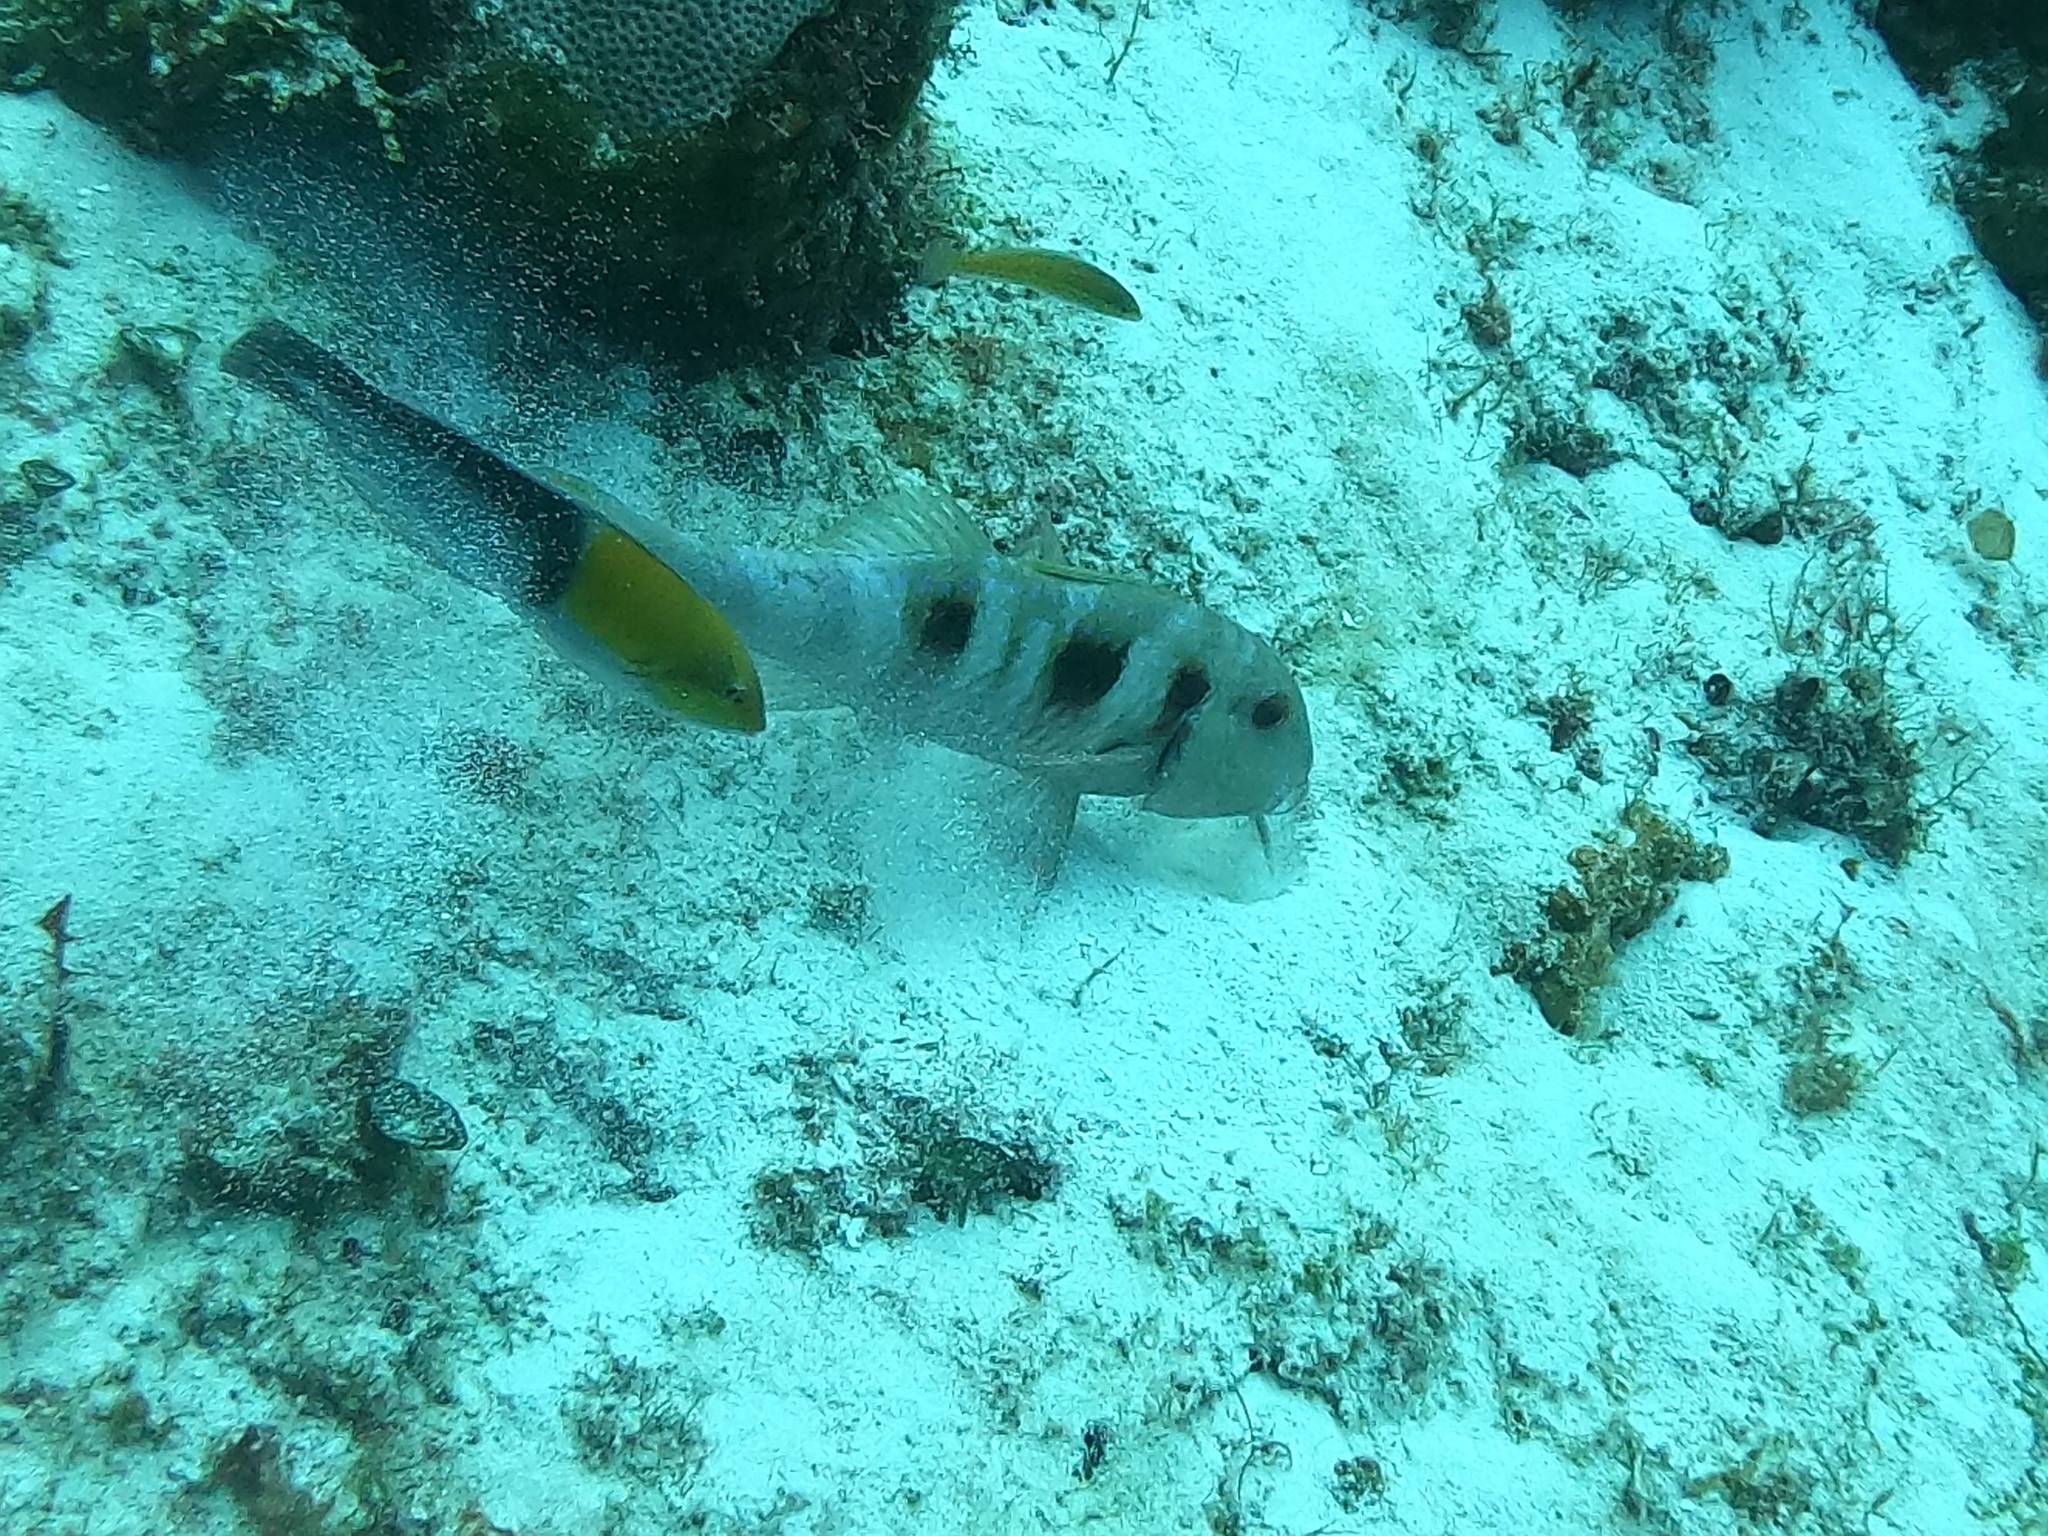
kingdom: Animalia
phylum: Chordata
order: Perciformes
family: Mullidae
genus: Pseudupeneus
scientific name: Pseudupeneus maculatus
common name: Spotted goatfish
